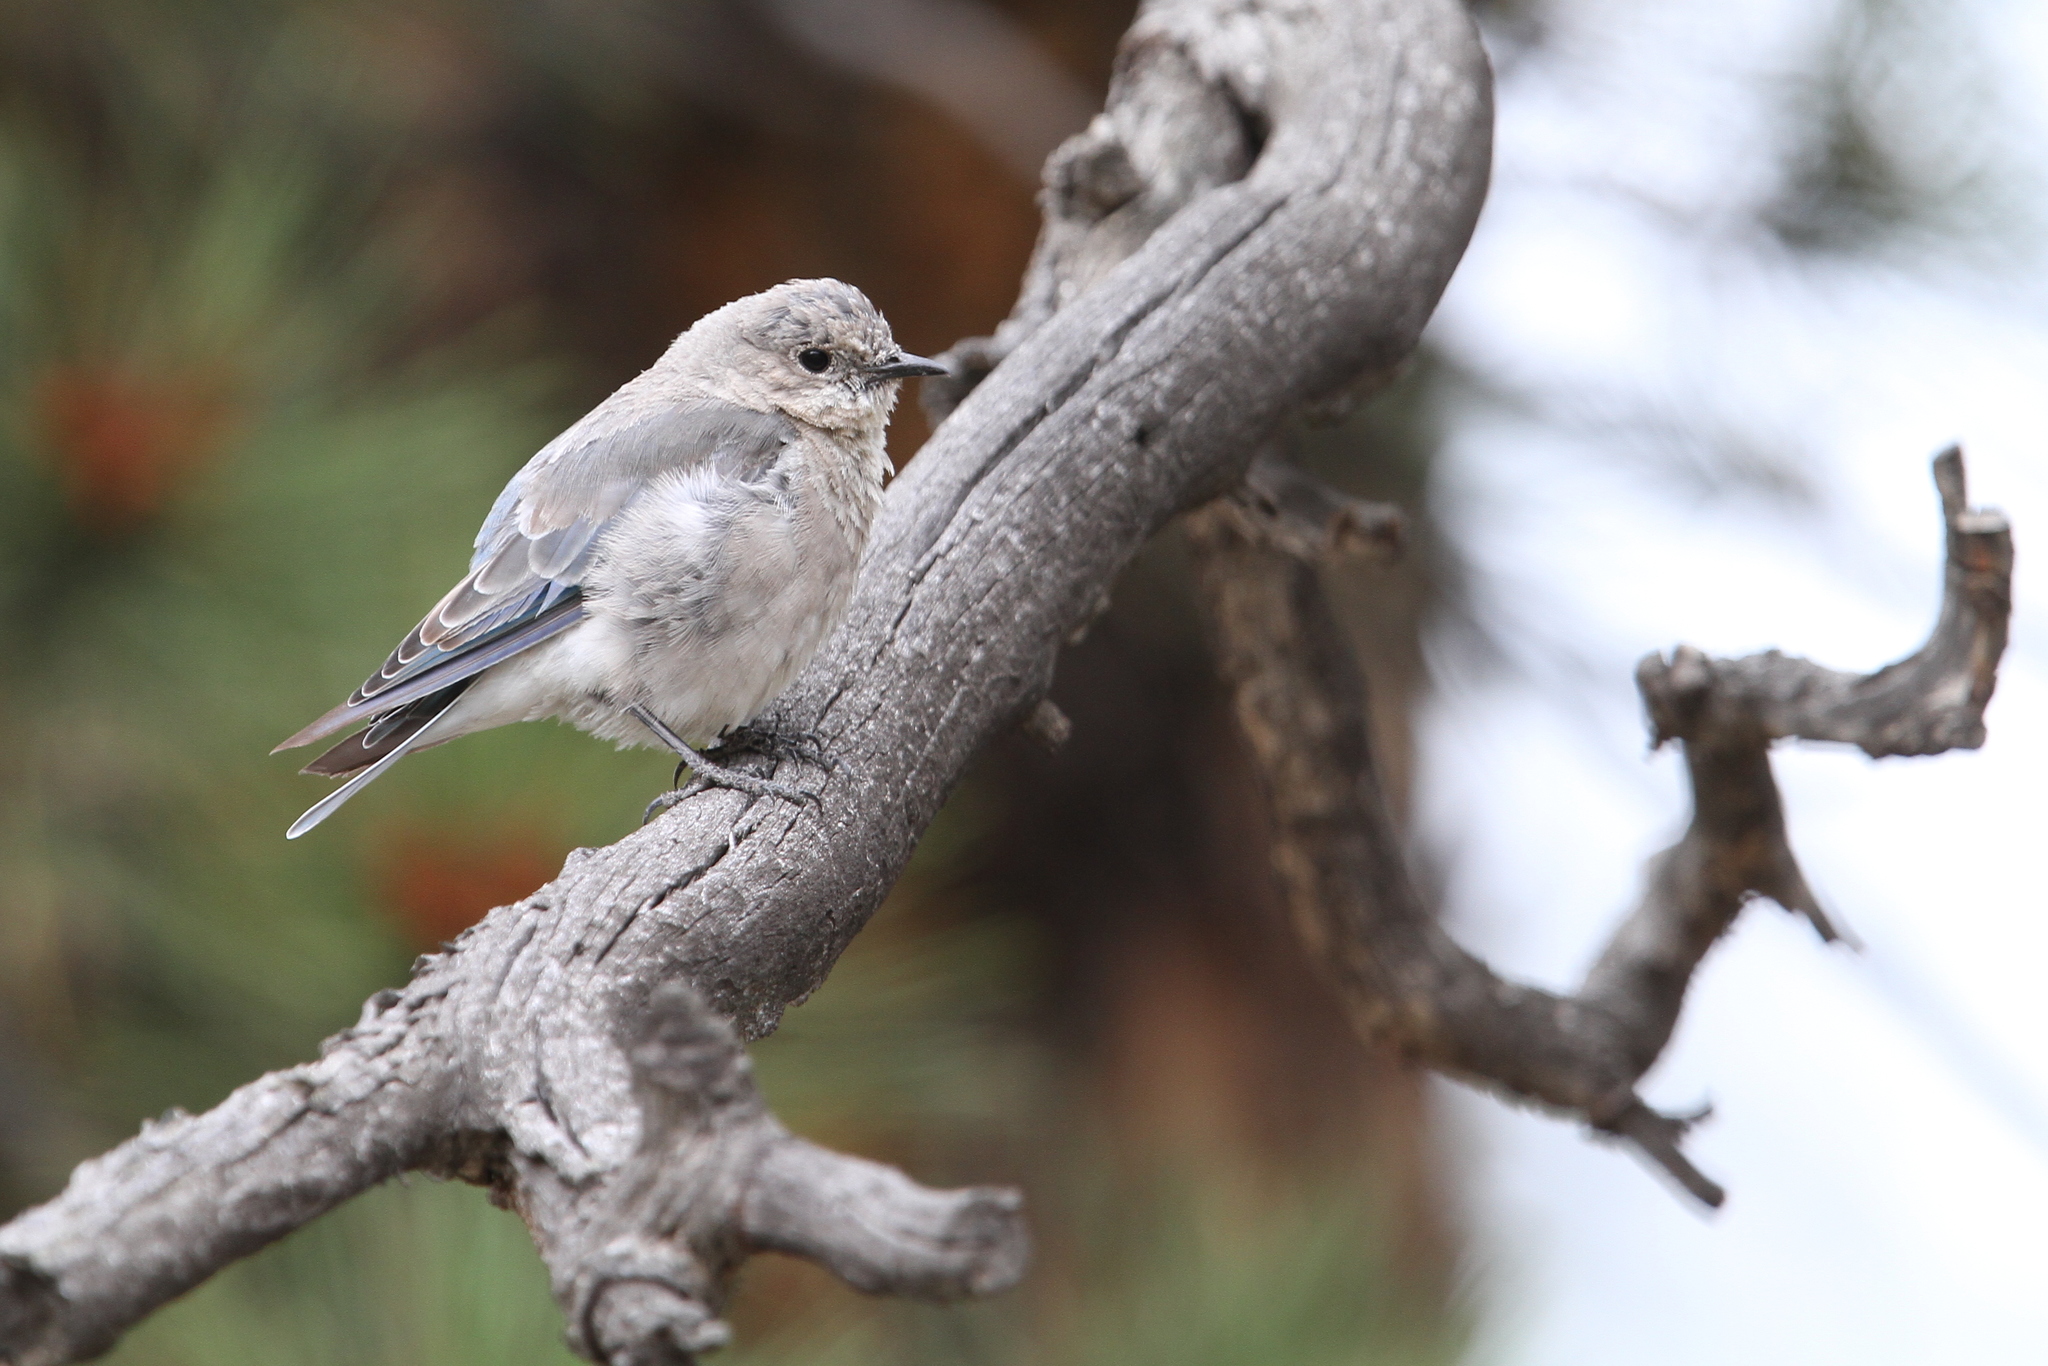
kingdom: Animalia
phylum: Chordata
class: Aves
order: Passeriformes
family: Turdidae
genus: Sialia
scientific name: Sialia currucoides
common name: Mountain bluebird
